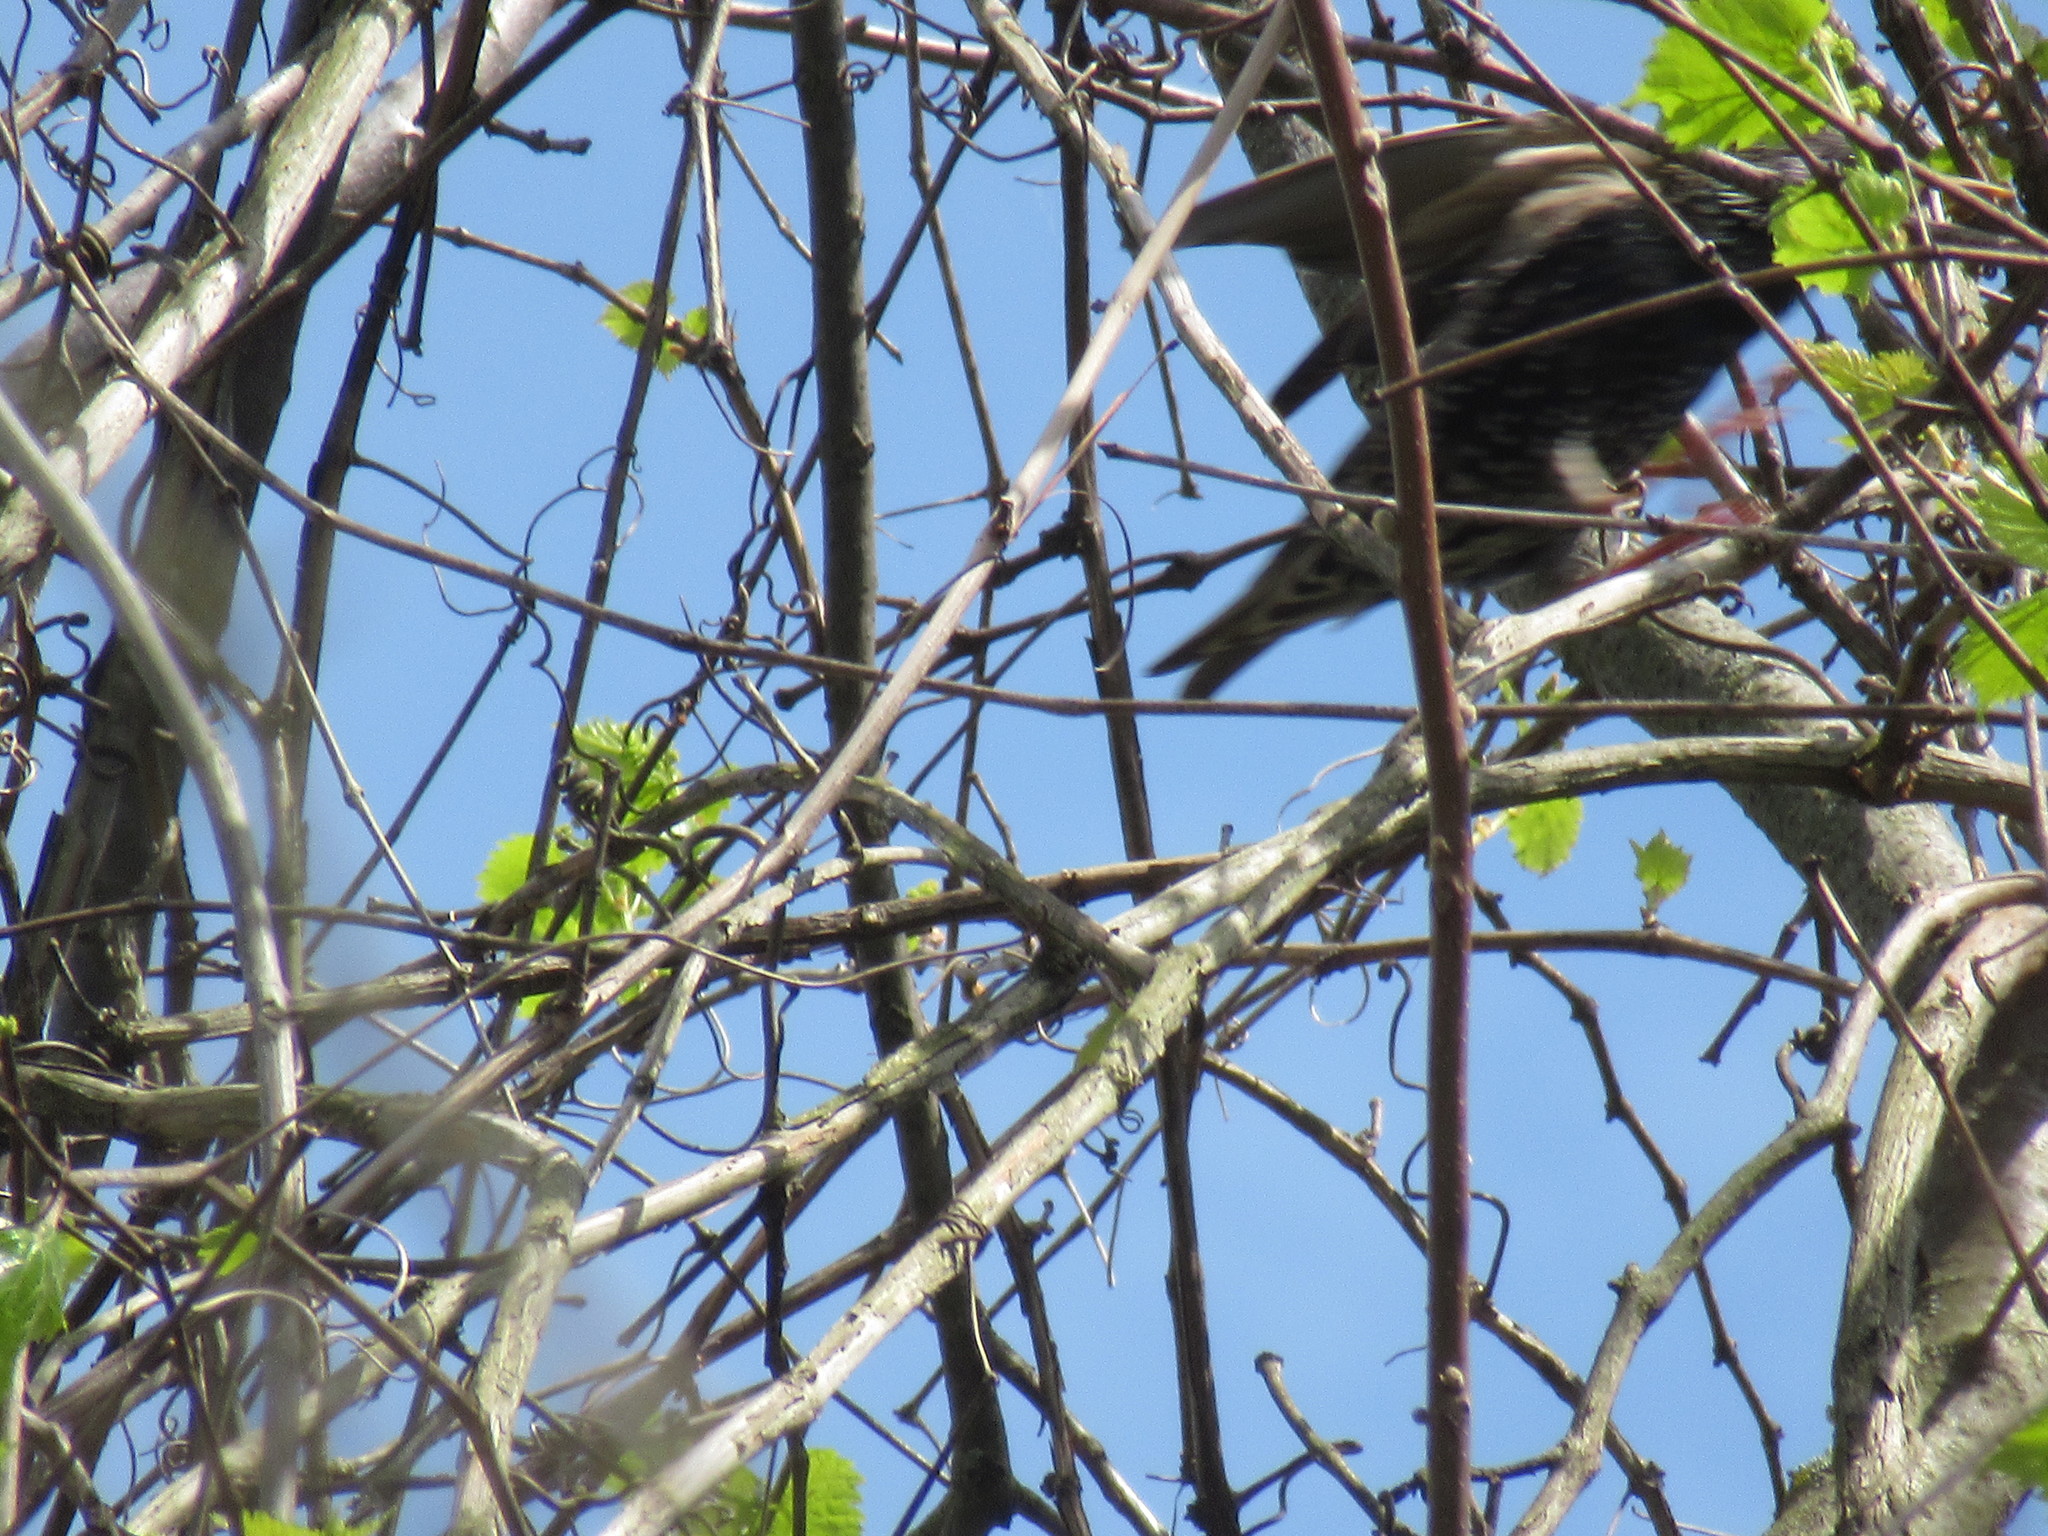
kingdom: Animalia
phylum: Chordata
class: Aves
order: Passeriformes
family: Sturnidae
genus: Sturnus
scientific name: Sturnus vulgaris
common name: Common starling
